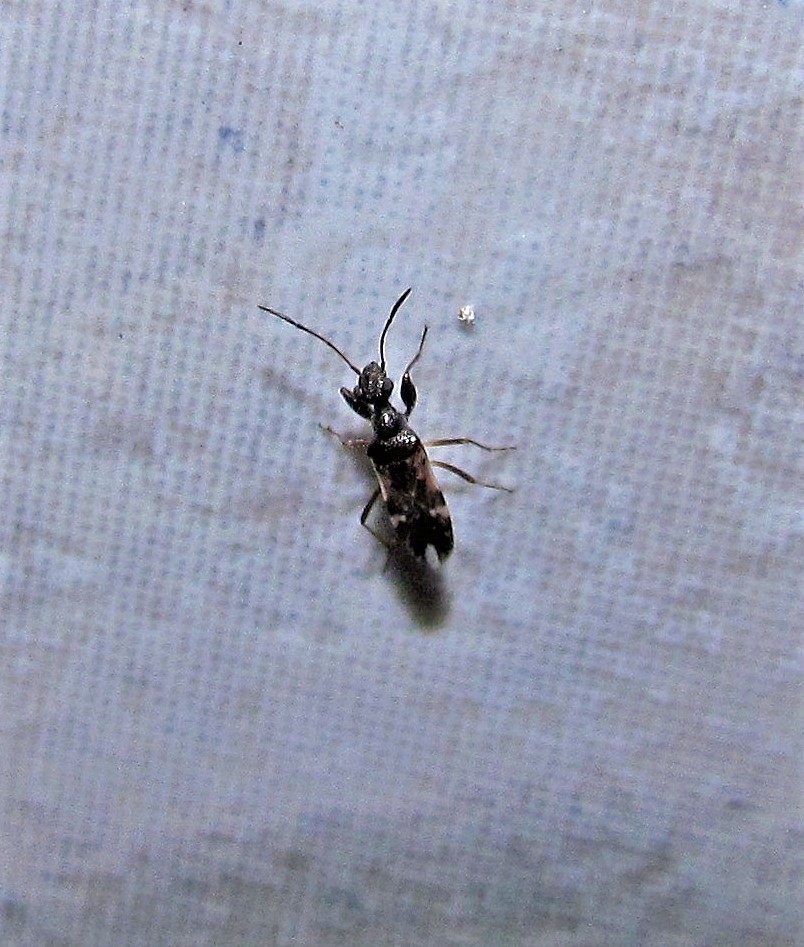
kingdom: Animalia
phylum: Arthropoda
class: Insecta
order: Hemiptera
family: Rhyparochromidae
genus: Erlacda
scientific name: Erlacda argentinensis
